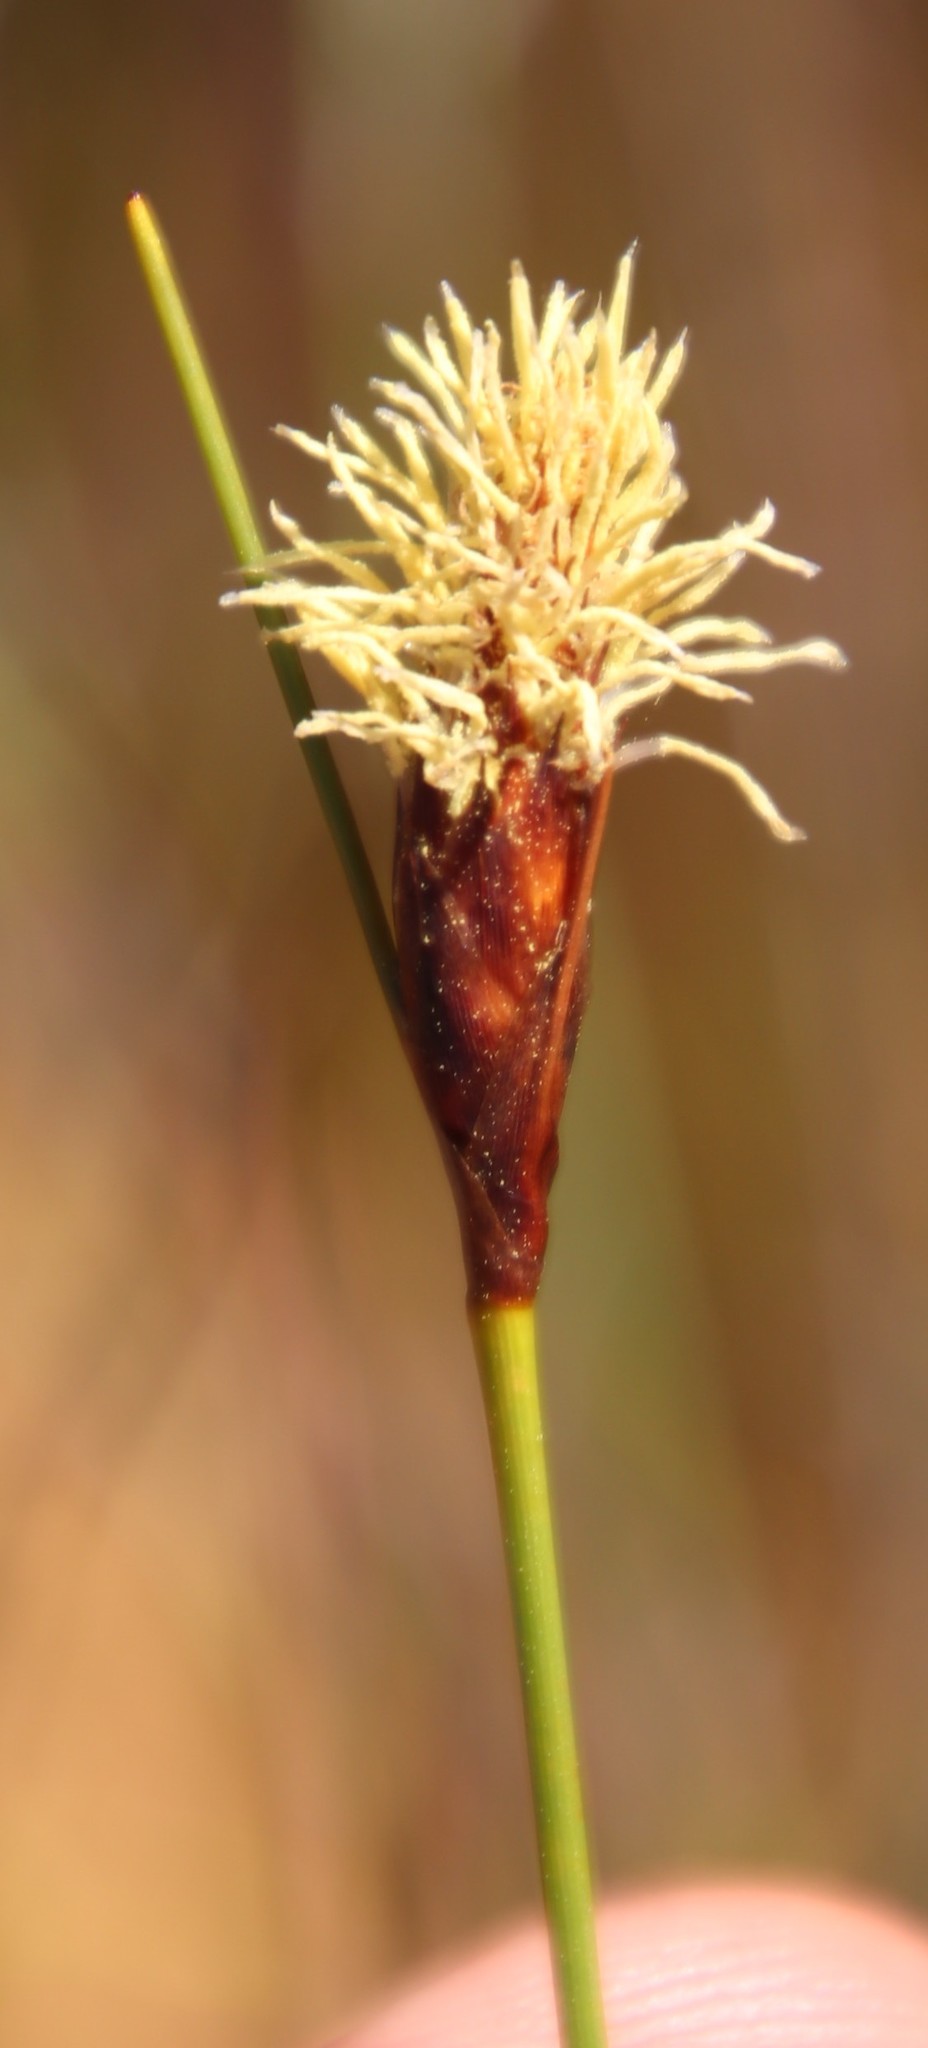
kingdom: Plantae
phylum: Tracheophyta
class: Liliopsida
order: Poales
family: Cyperaceae
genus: Ficinia
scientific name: Ficinia nigrescens
